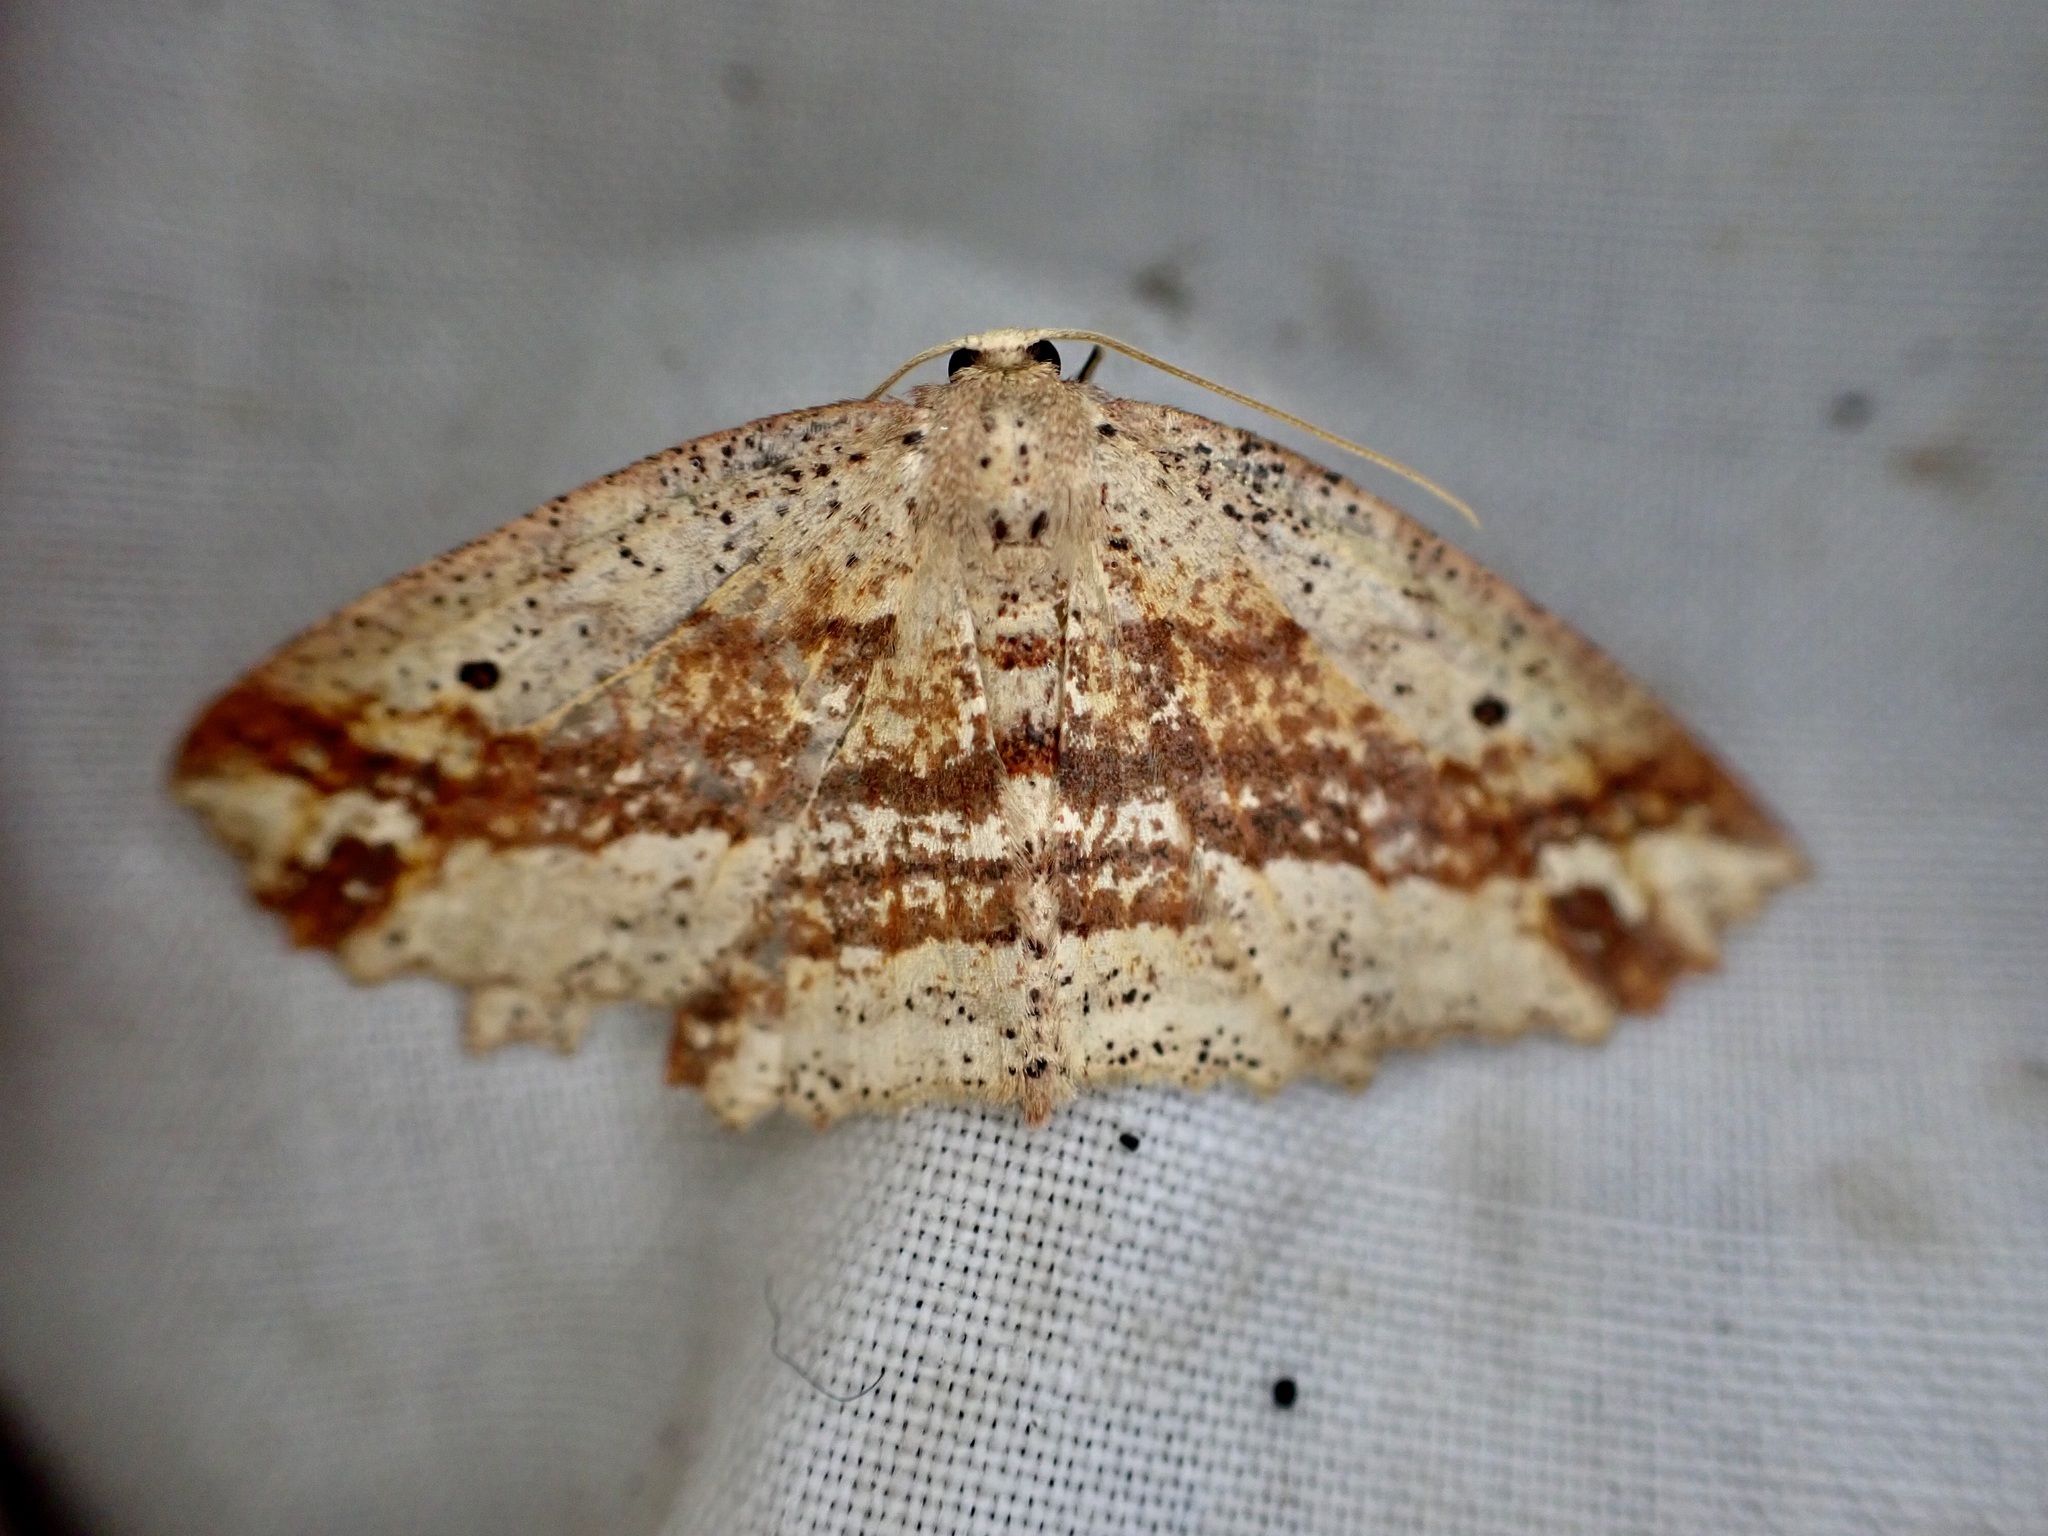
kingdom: Animalia
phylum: Arthropoda
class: Insecta
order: Lepidoptera
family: Geometridae
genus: Xyridacma
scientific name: Xyridacma veronicae
